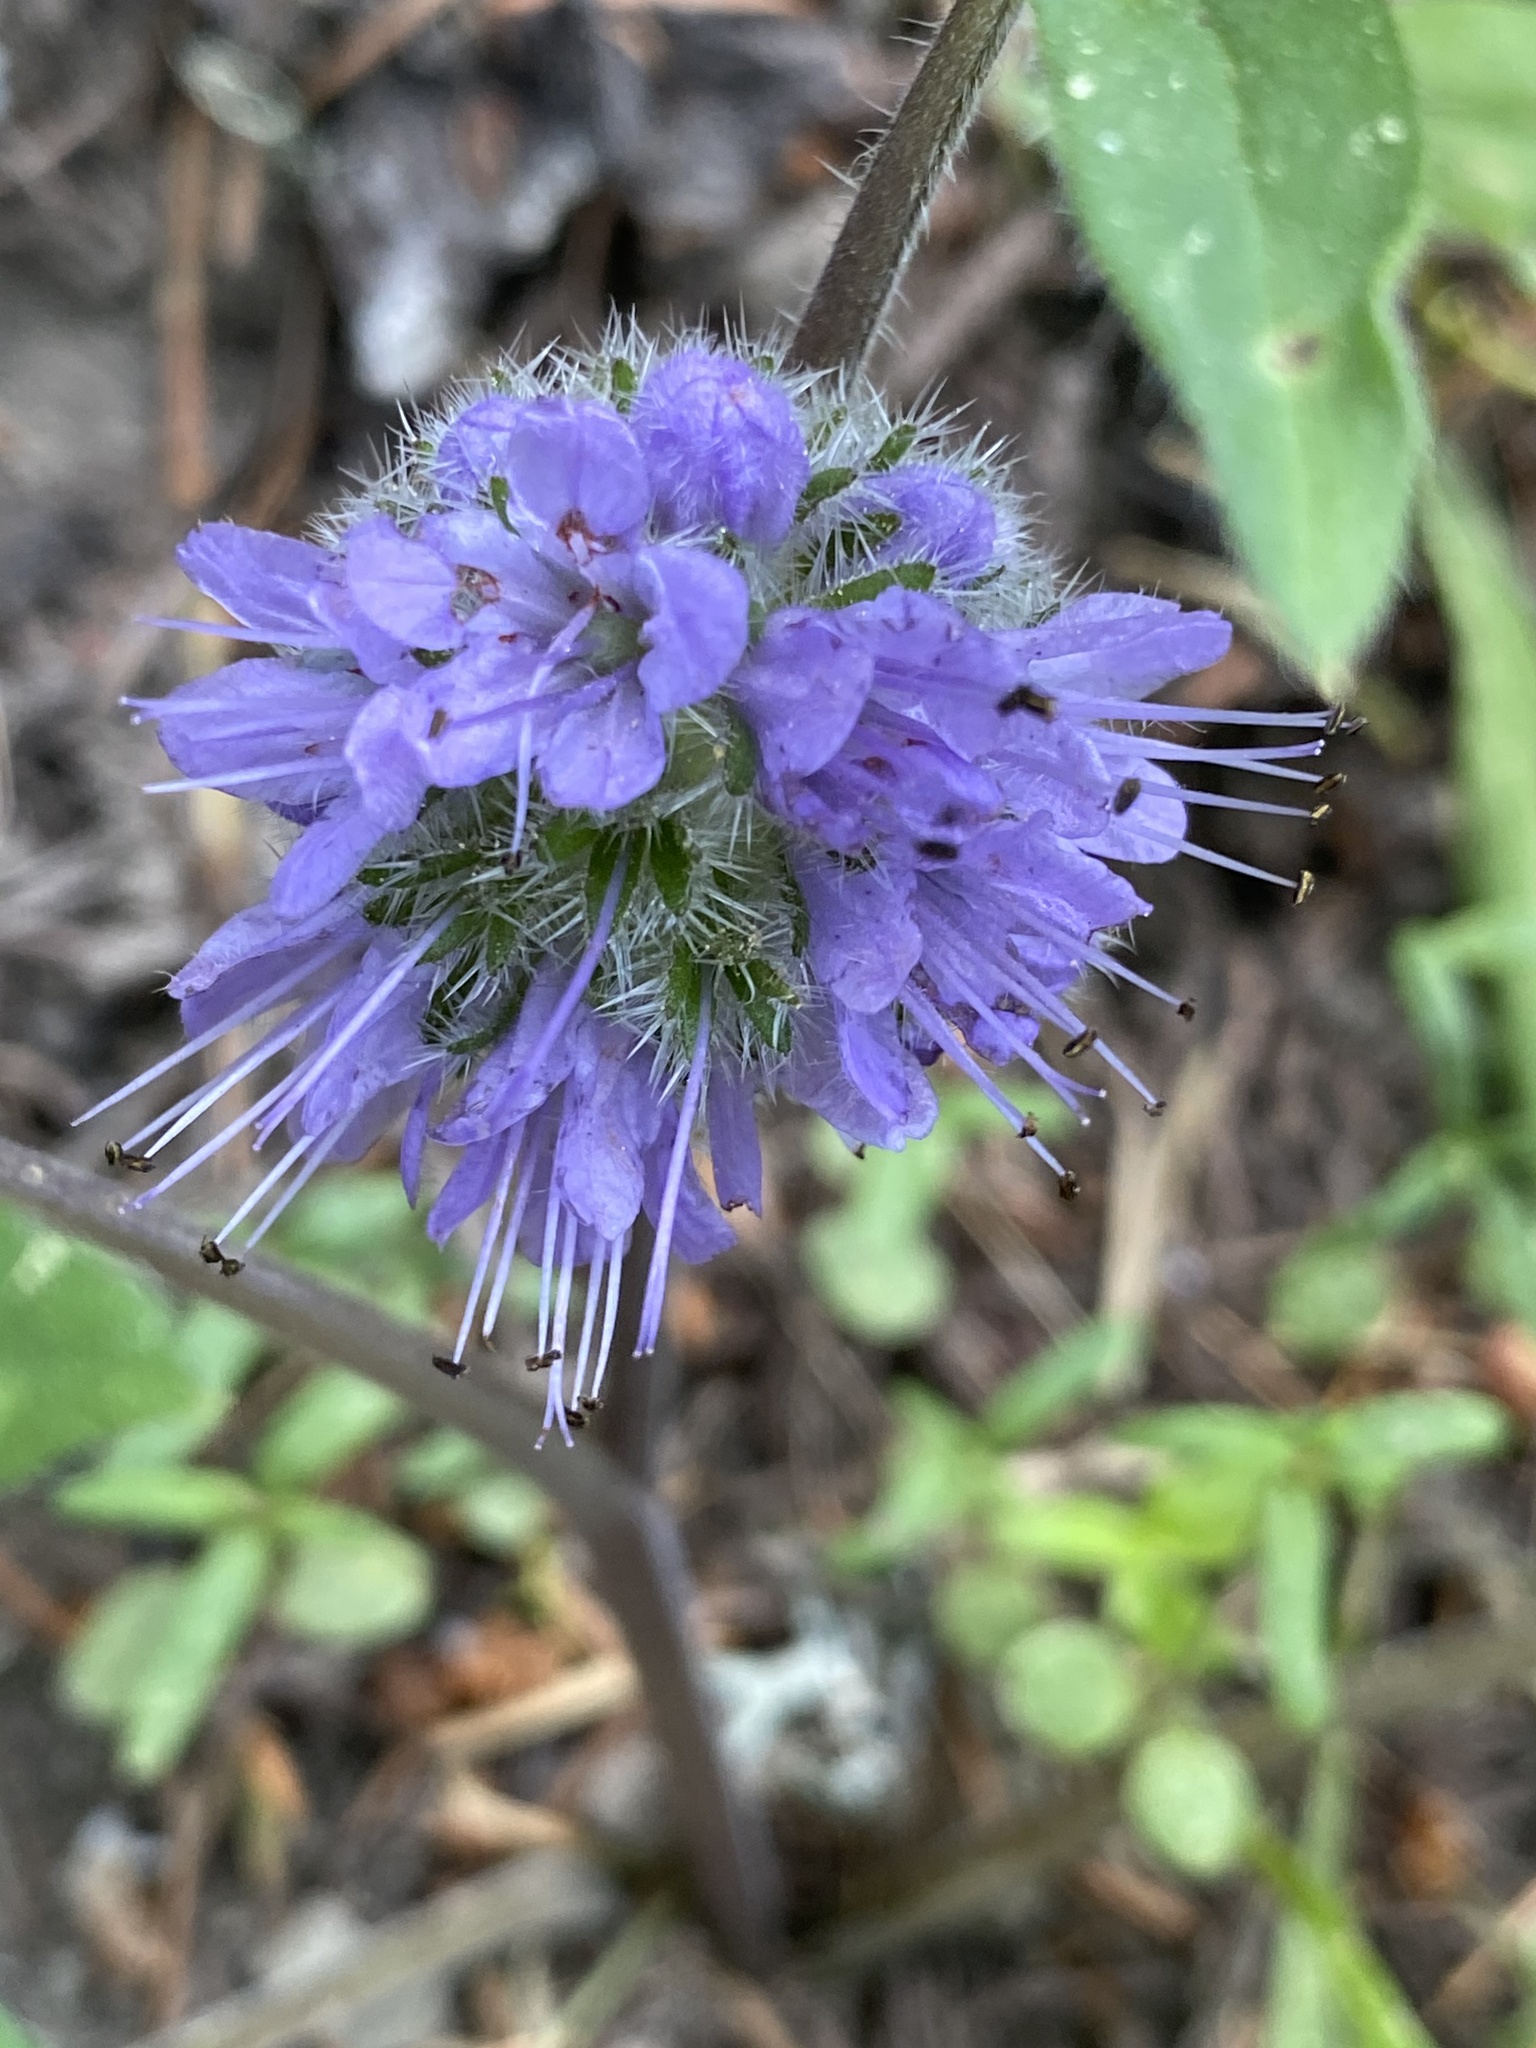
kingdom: Plantae
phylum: Tracheophyta
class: Magnoliopsida
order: Boraginales
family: Hydrophyllaceae
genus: Hydrophyllum
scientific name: Hydrophyllum capitatum
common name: Woollen-breeches
